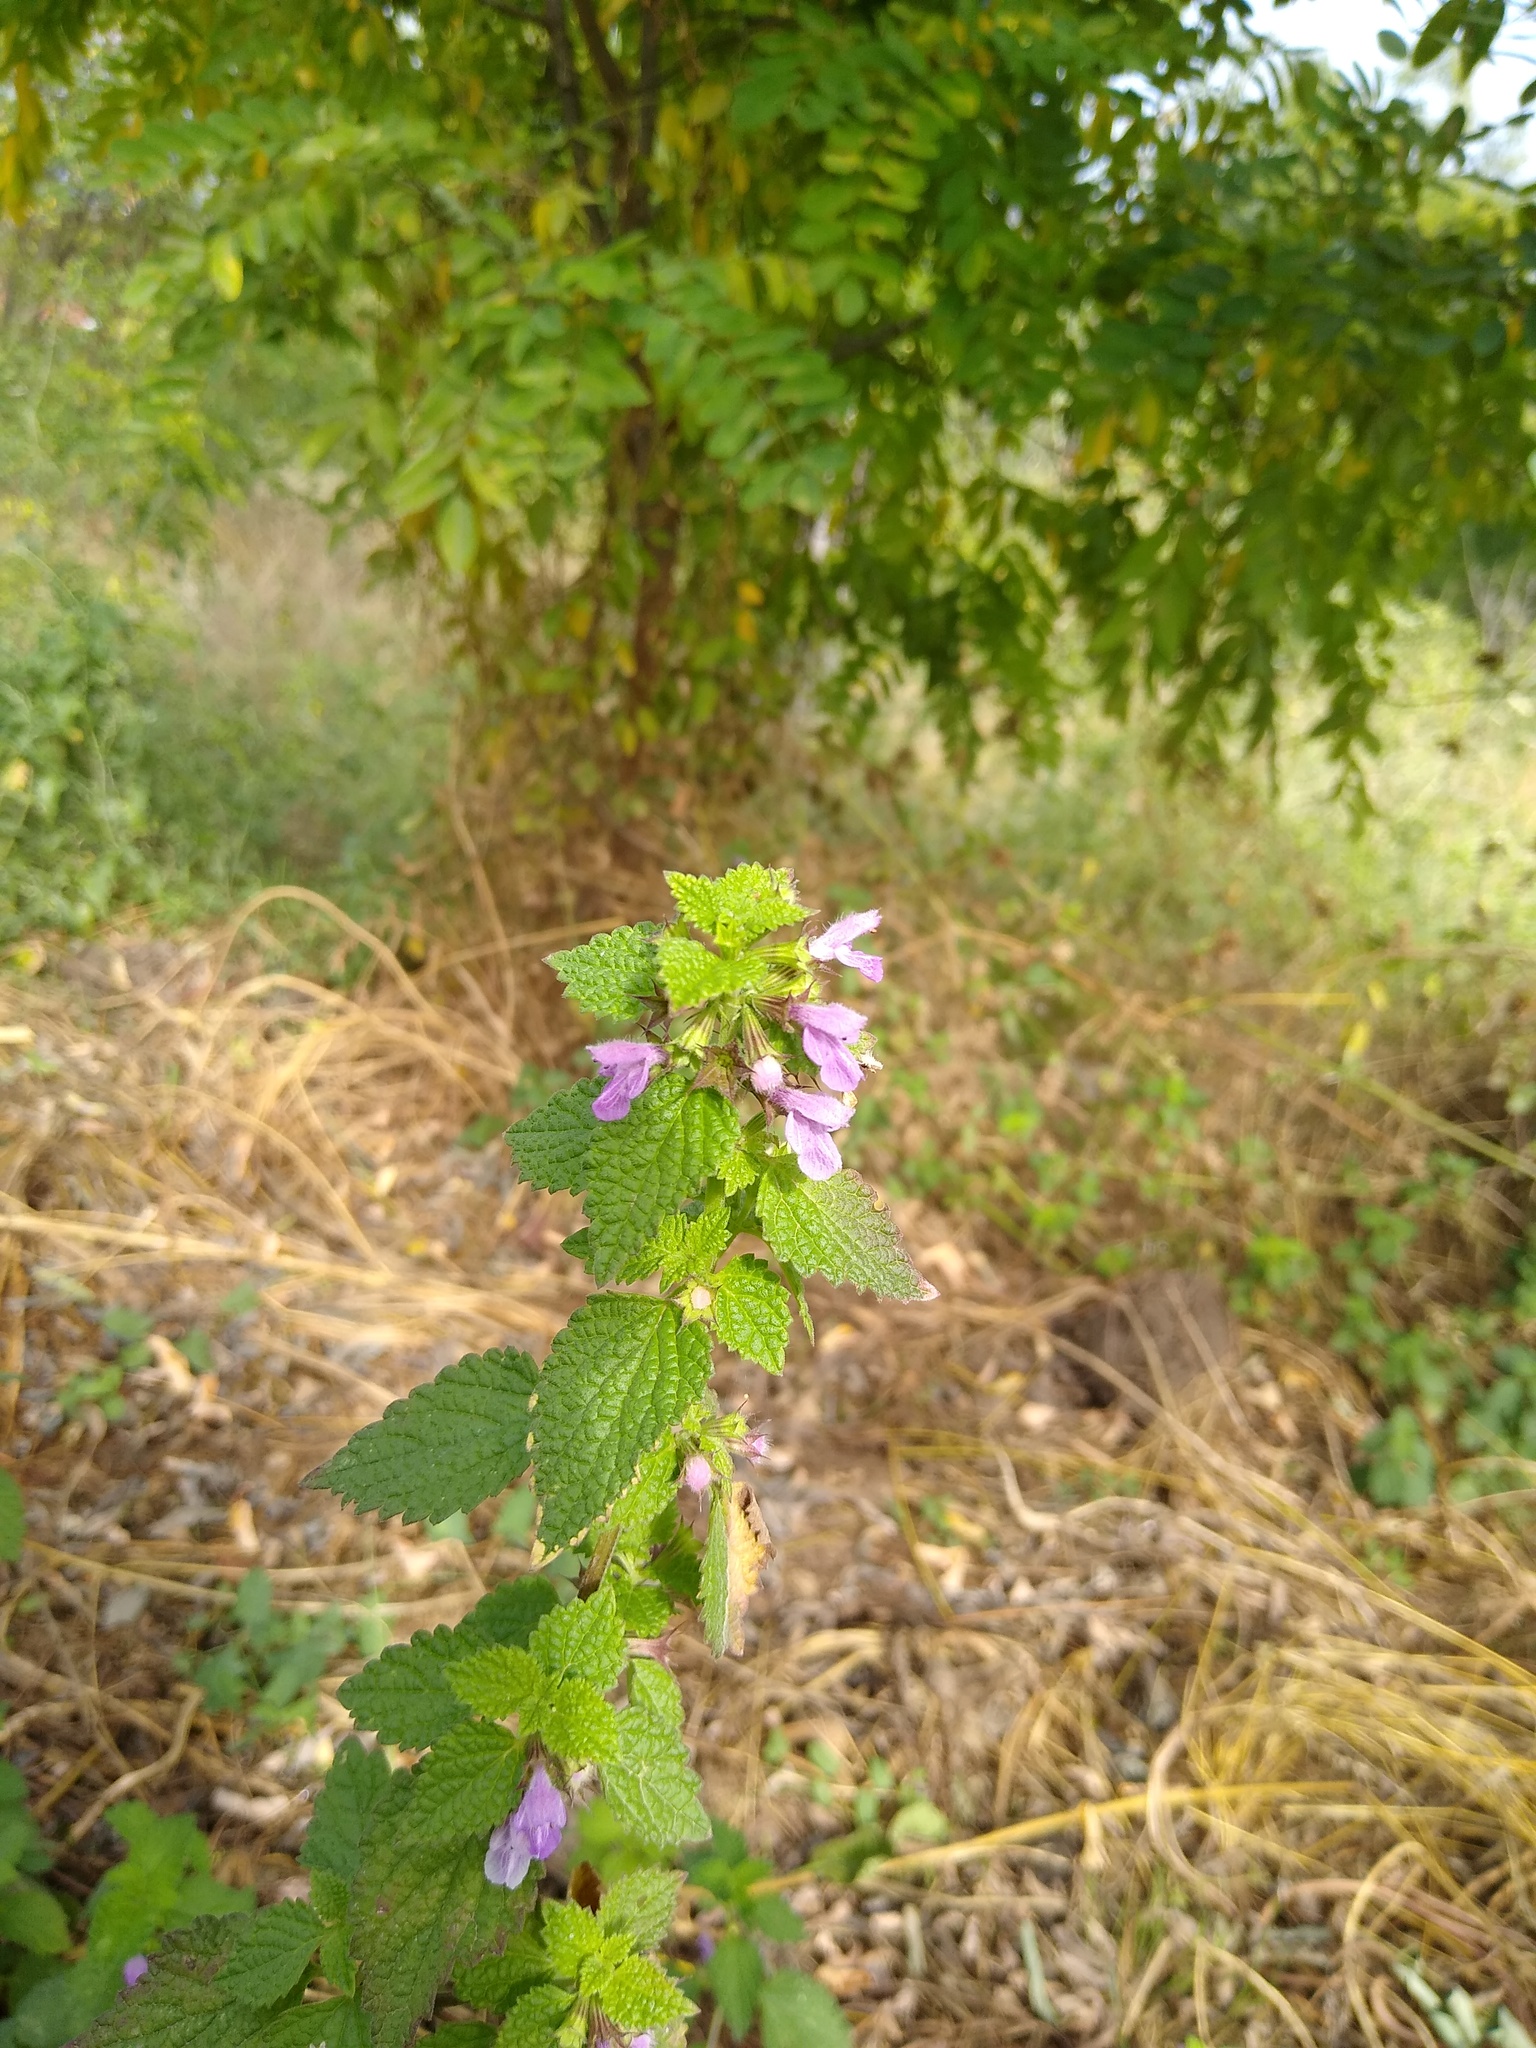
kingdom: Plantae
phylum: Tracheophyta
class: Magnoliopsida
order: Lamiales
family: Lamiaceae
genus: Ballota
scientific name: Ballota nigra
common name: Black horehound
